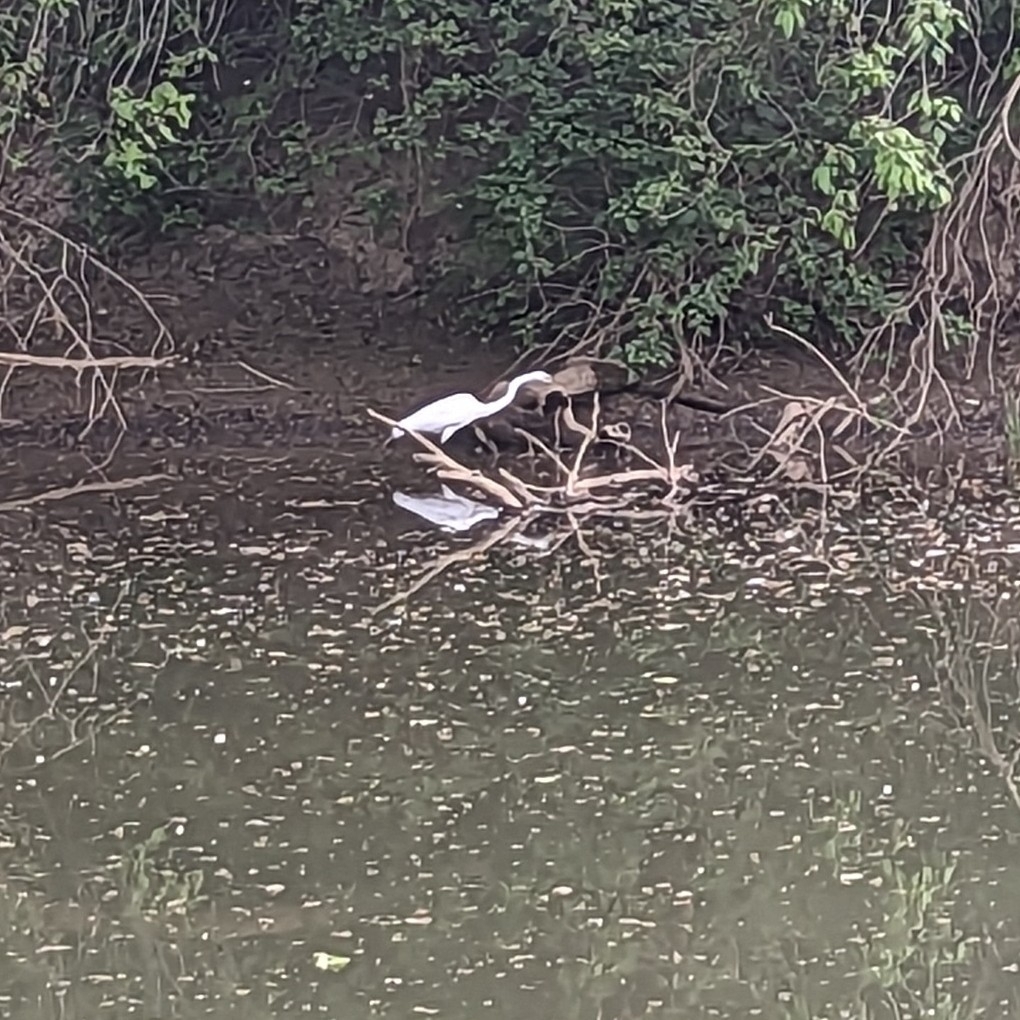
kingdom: Animalia
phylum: Chordata
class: Aves
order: Pelecaniformes
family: Ardeidae
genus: Ardea
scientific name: Ardea alba
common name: Great egret
